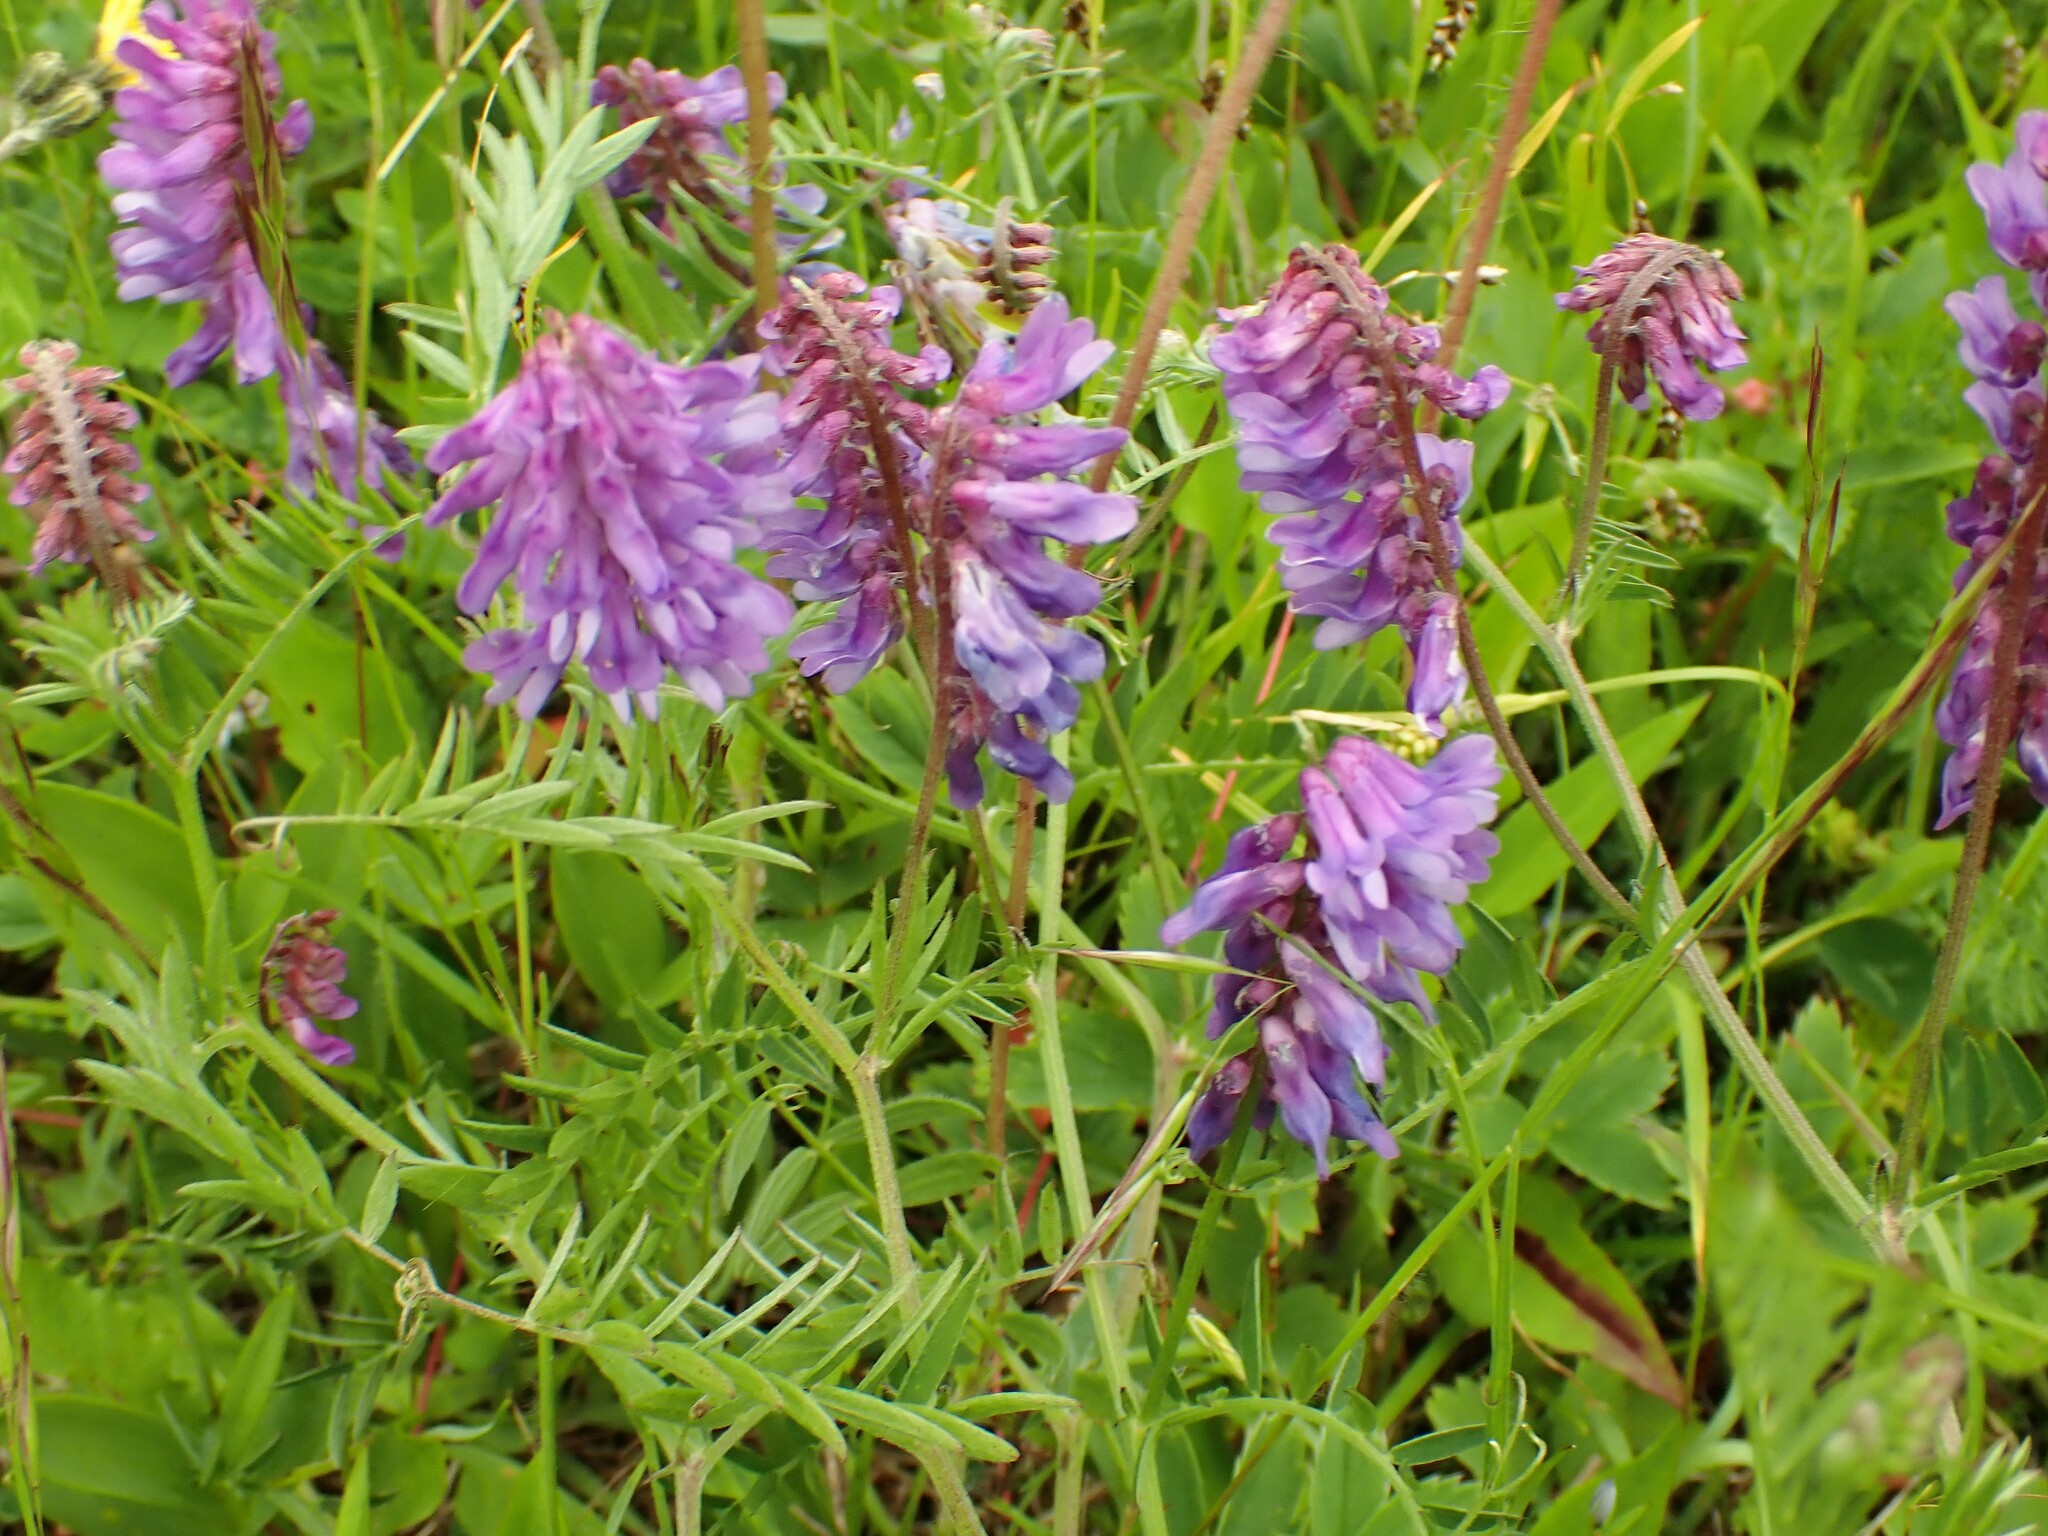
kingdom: Plantae
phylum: Tracheophyta
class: Magnoliopsida
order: Fabales
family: Fabaceae
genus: Vicia
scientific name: Vicia cracca
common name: Bird vetch
